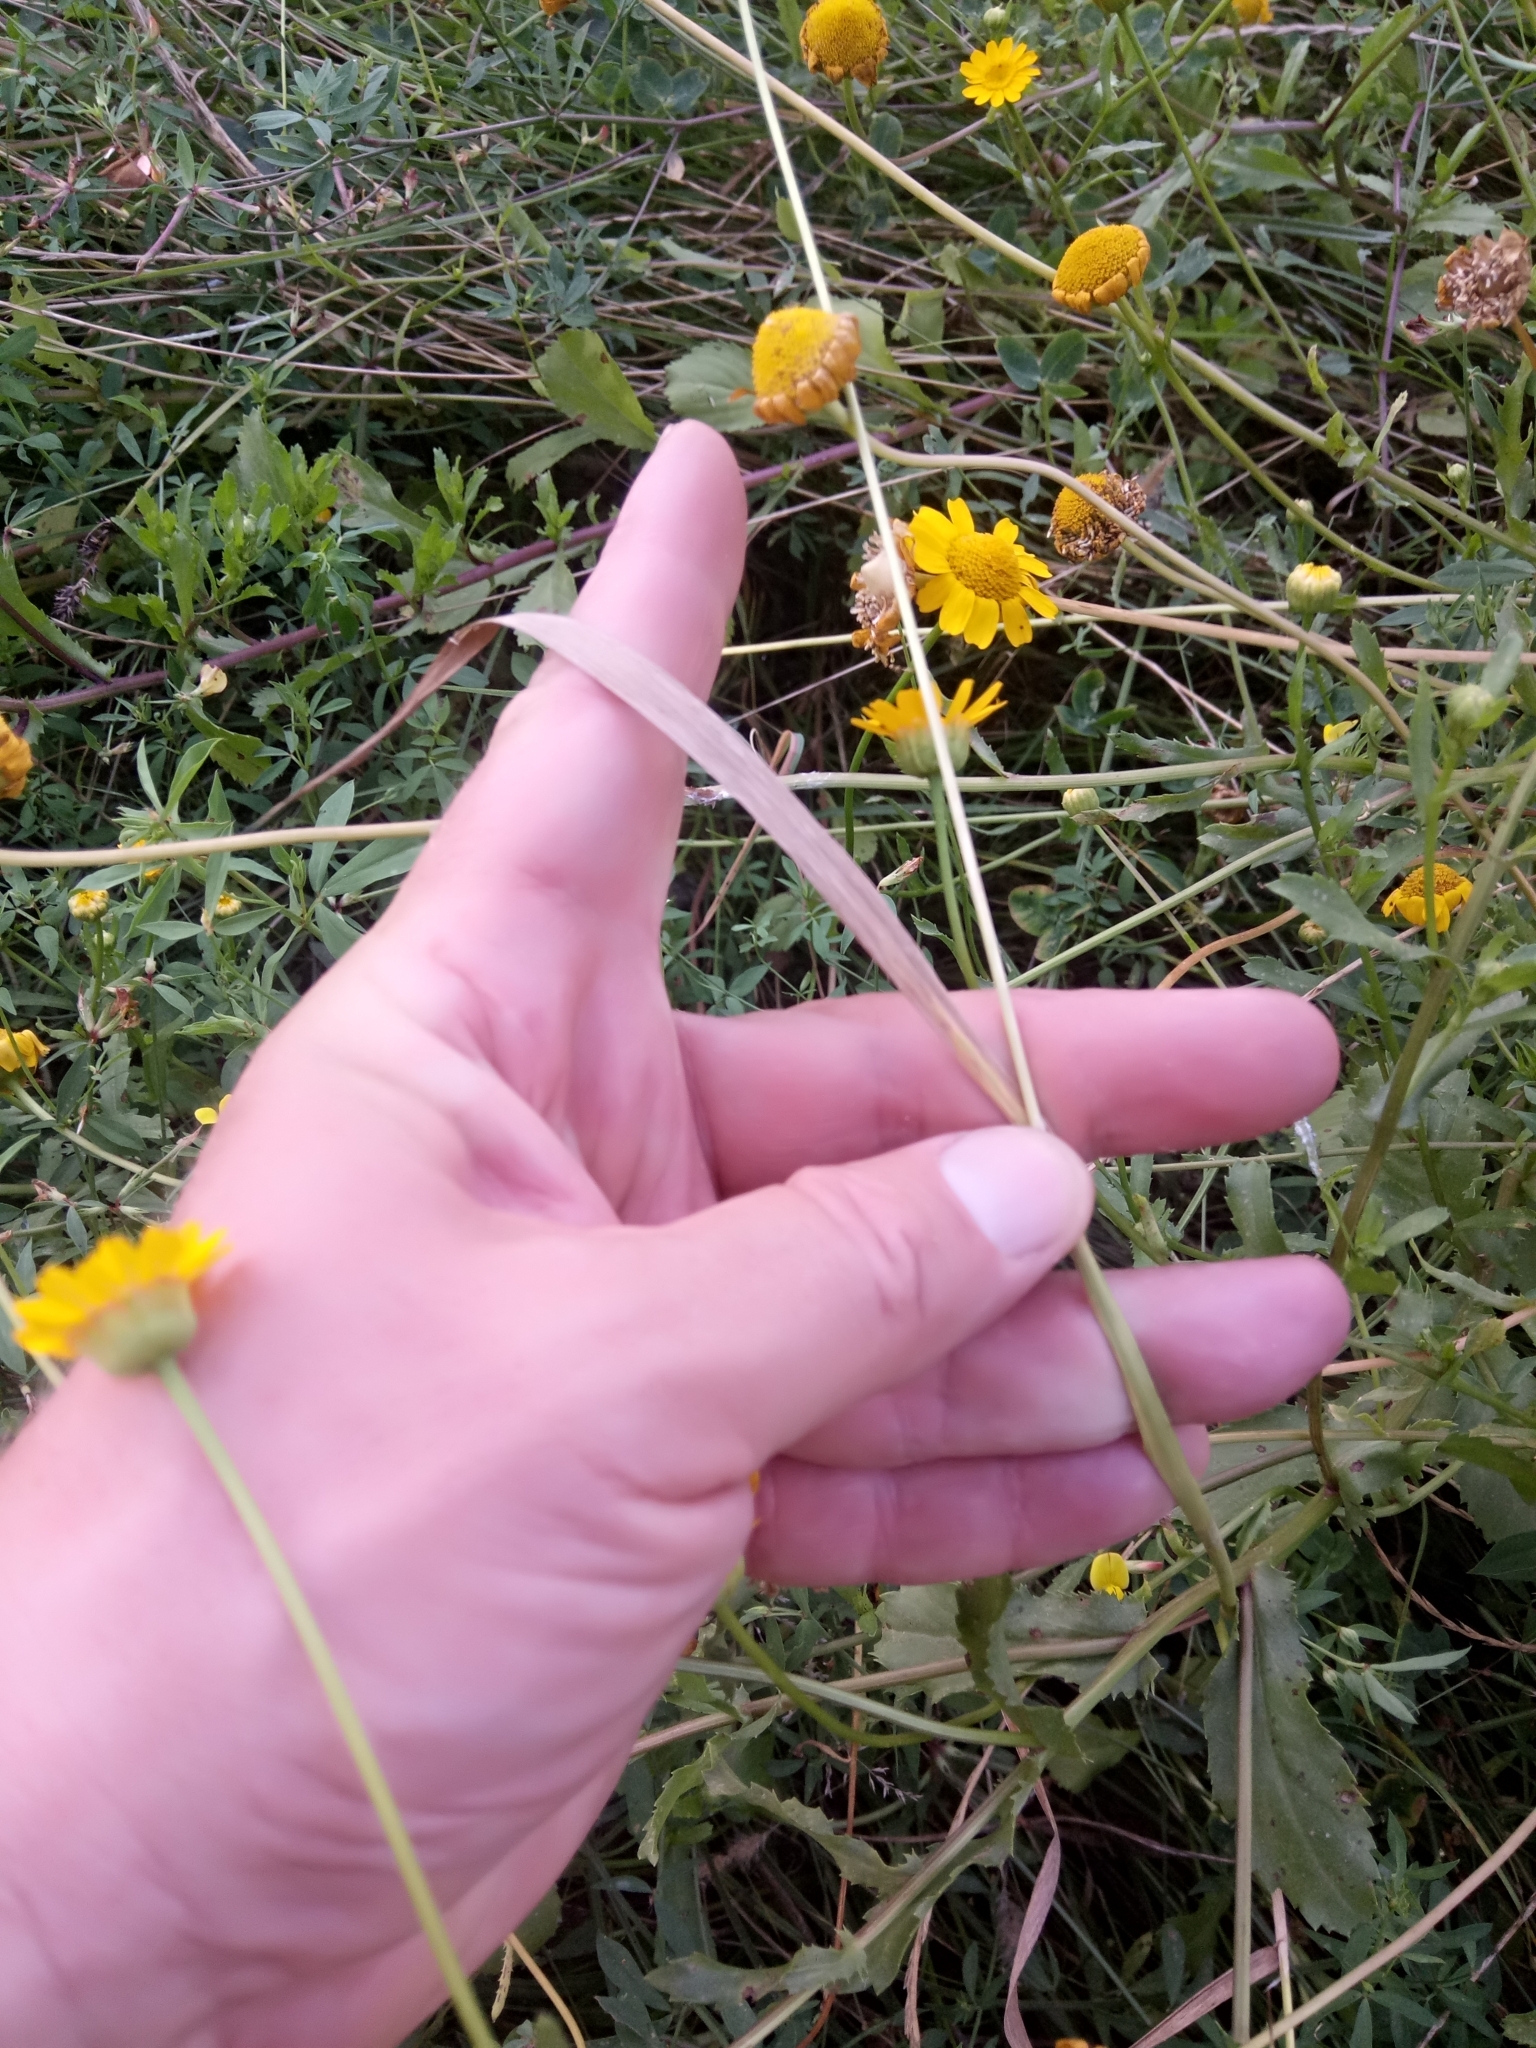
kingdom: Plantae
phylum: Tracheophyta
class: Liliopsida
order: Poales
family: Poaceae
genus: Polypogon
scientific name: Polypogon monspeliensis
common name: Annual rabbitsfoot grass
